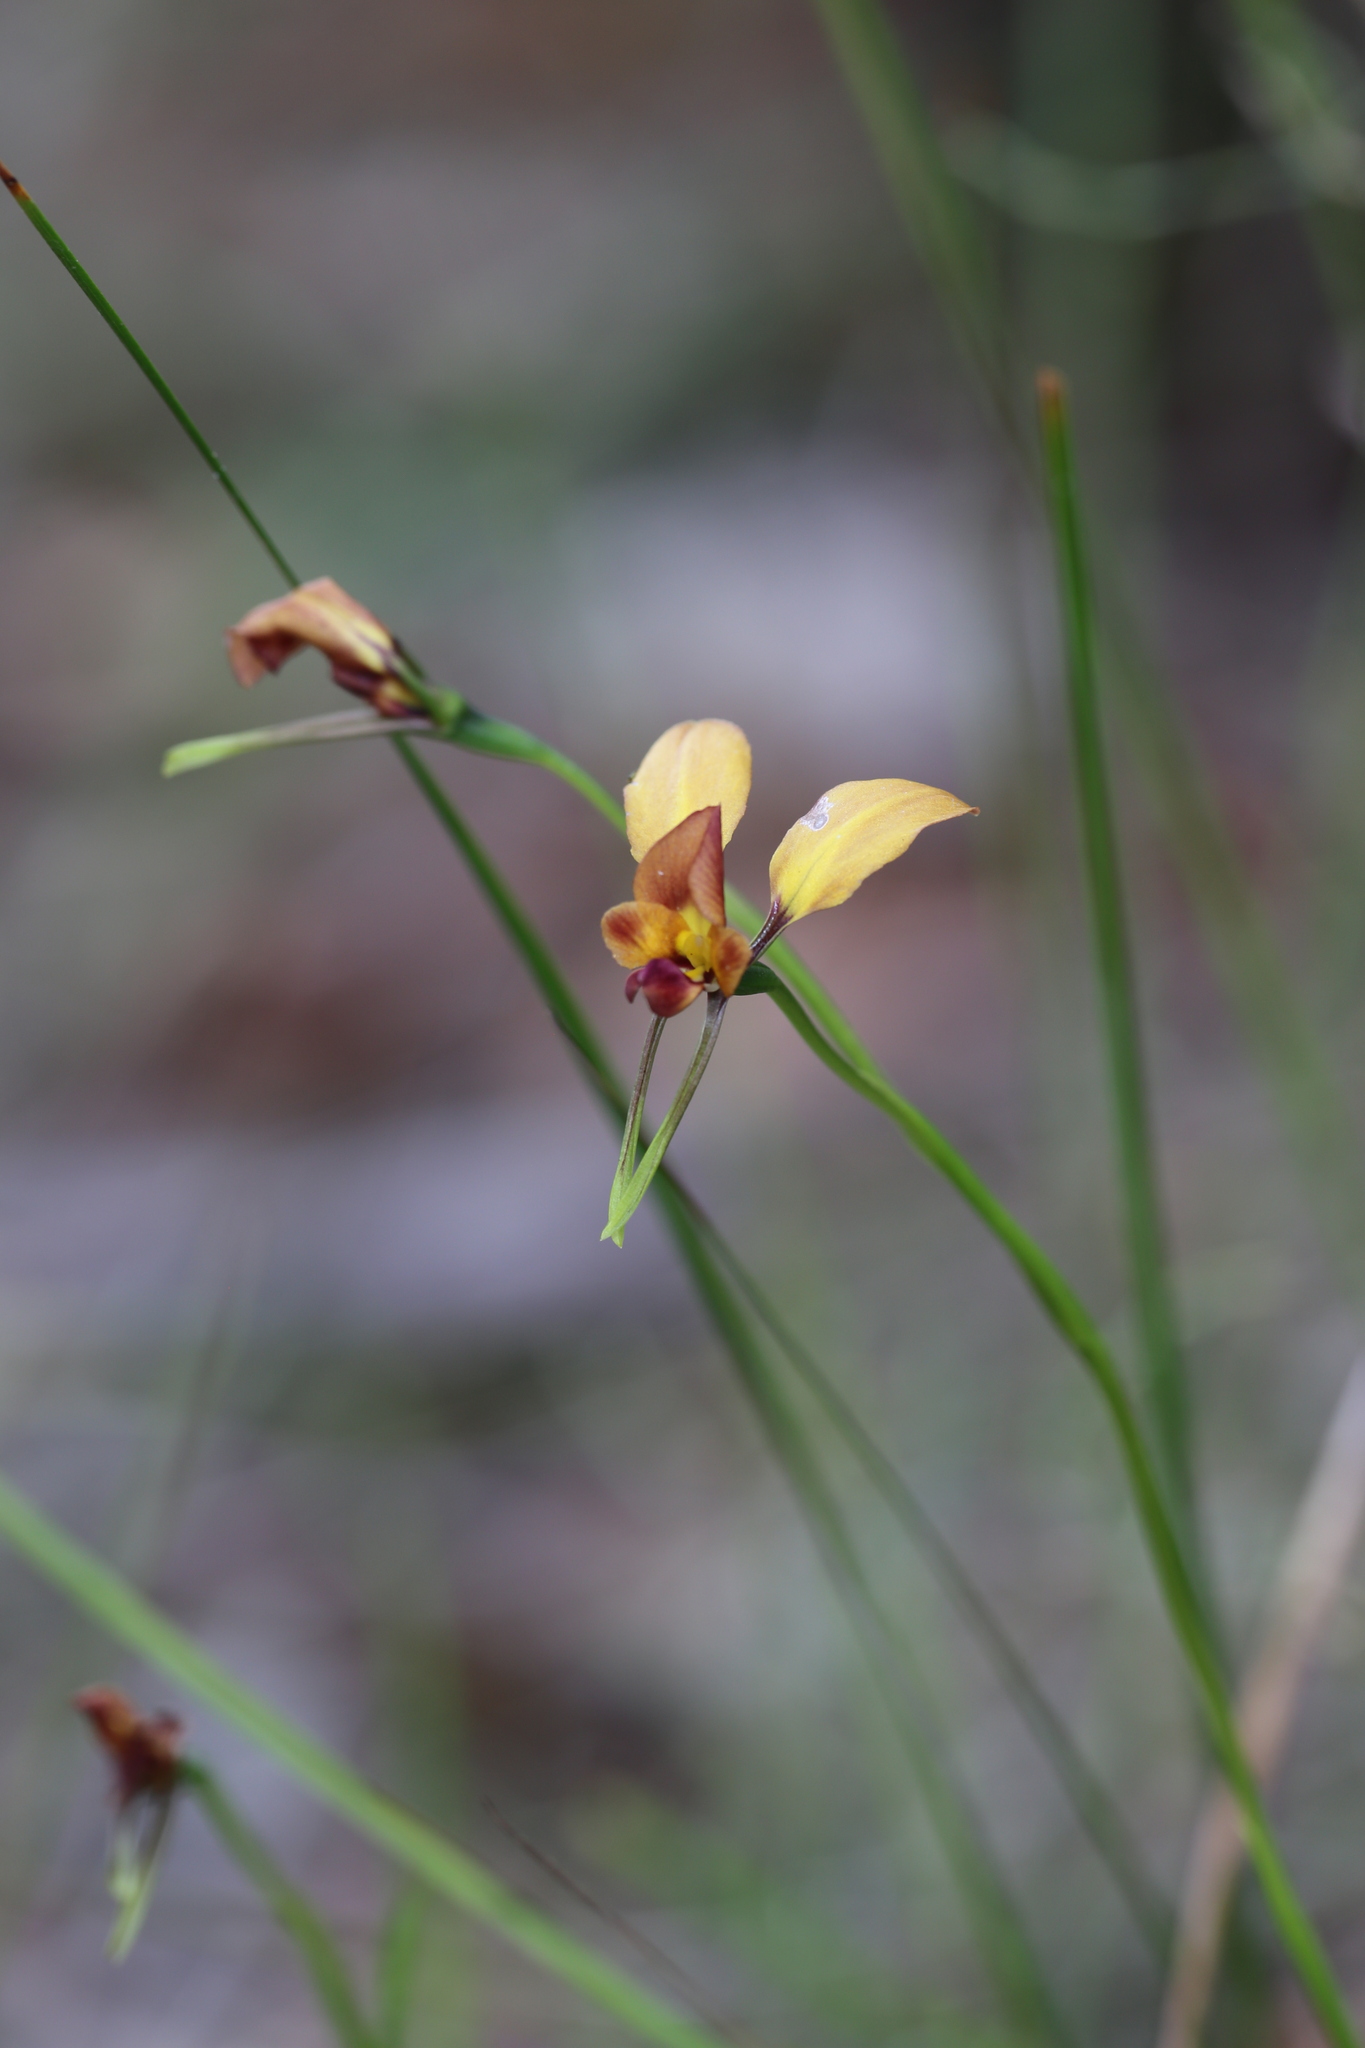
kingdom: Plantae
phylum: Tracheophyta
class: Liliopsida
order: Asparagales
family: Orchidaceae
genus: Diuris
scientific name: Diuris jonesii
